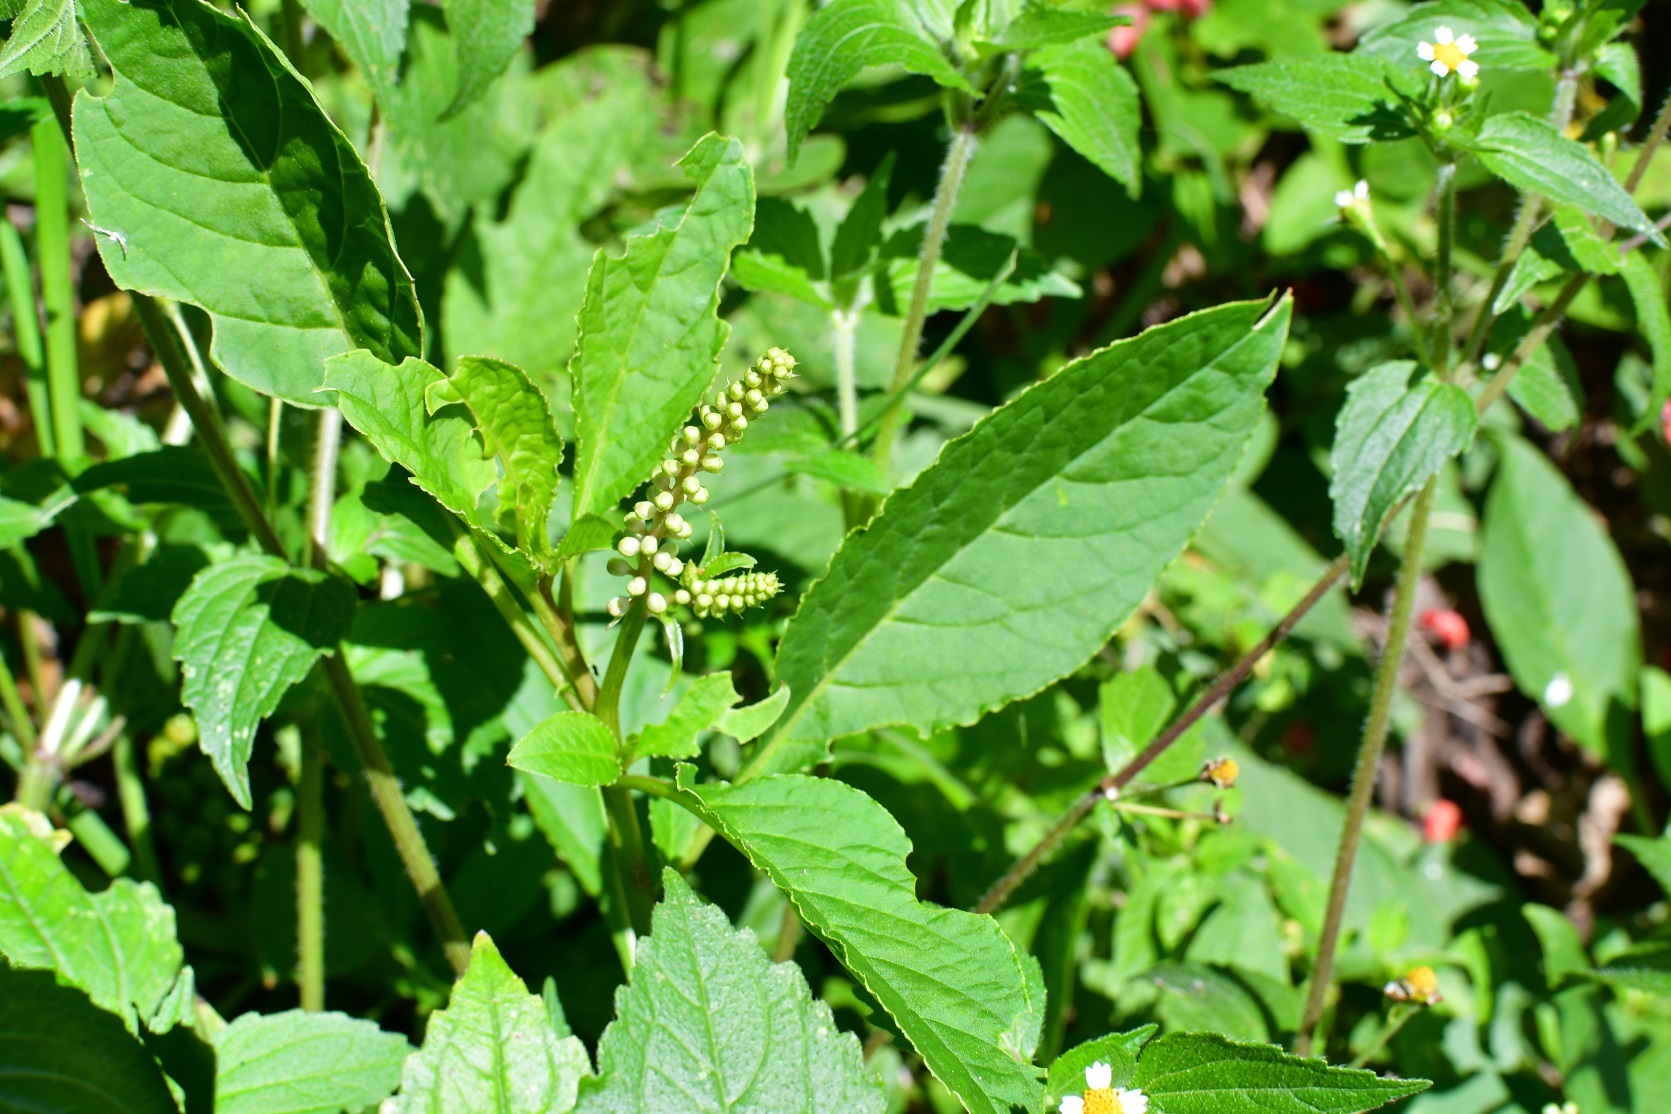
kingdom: Plantae
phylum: Tracheophyta
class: Magnoliopsida
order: Caryophyllales
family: Phytolaccaceae
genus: Phytolacca
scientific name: Phytolacca icosandra
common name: Button pokeweed
